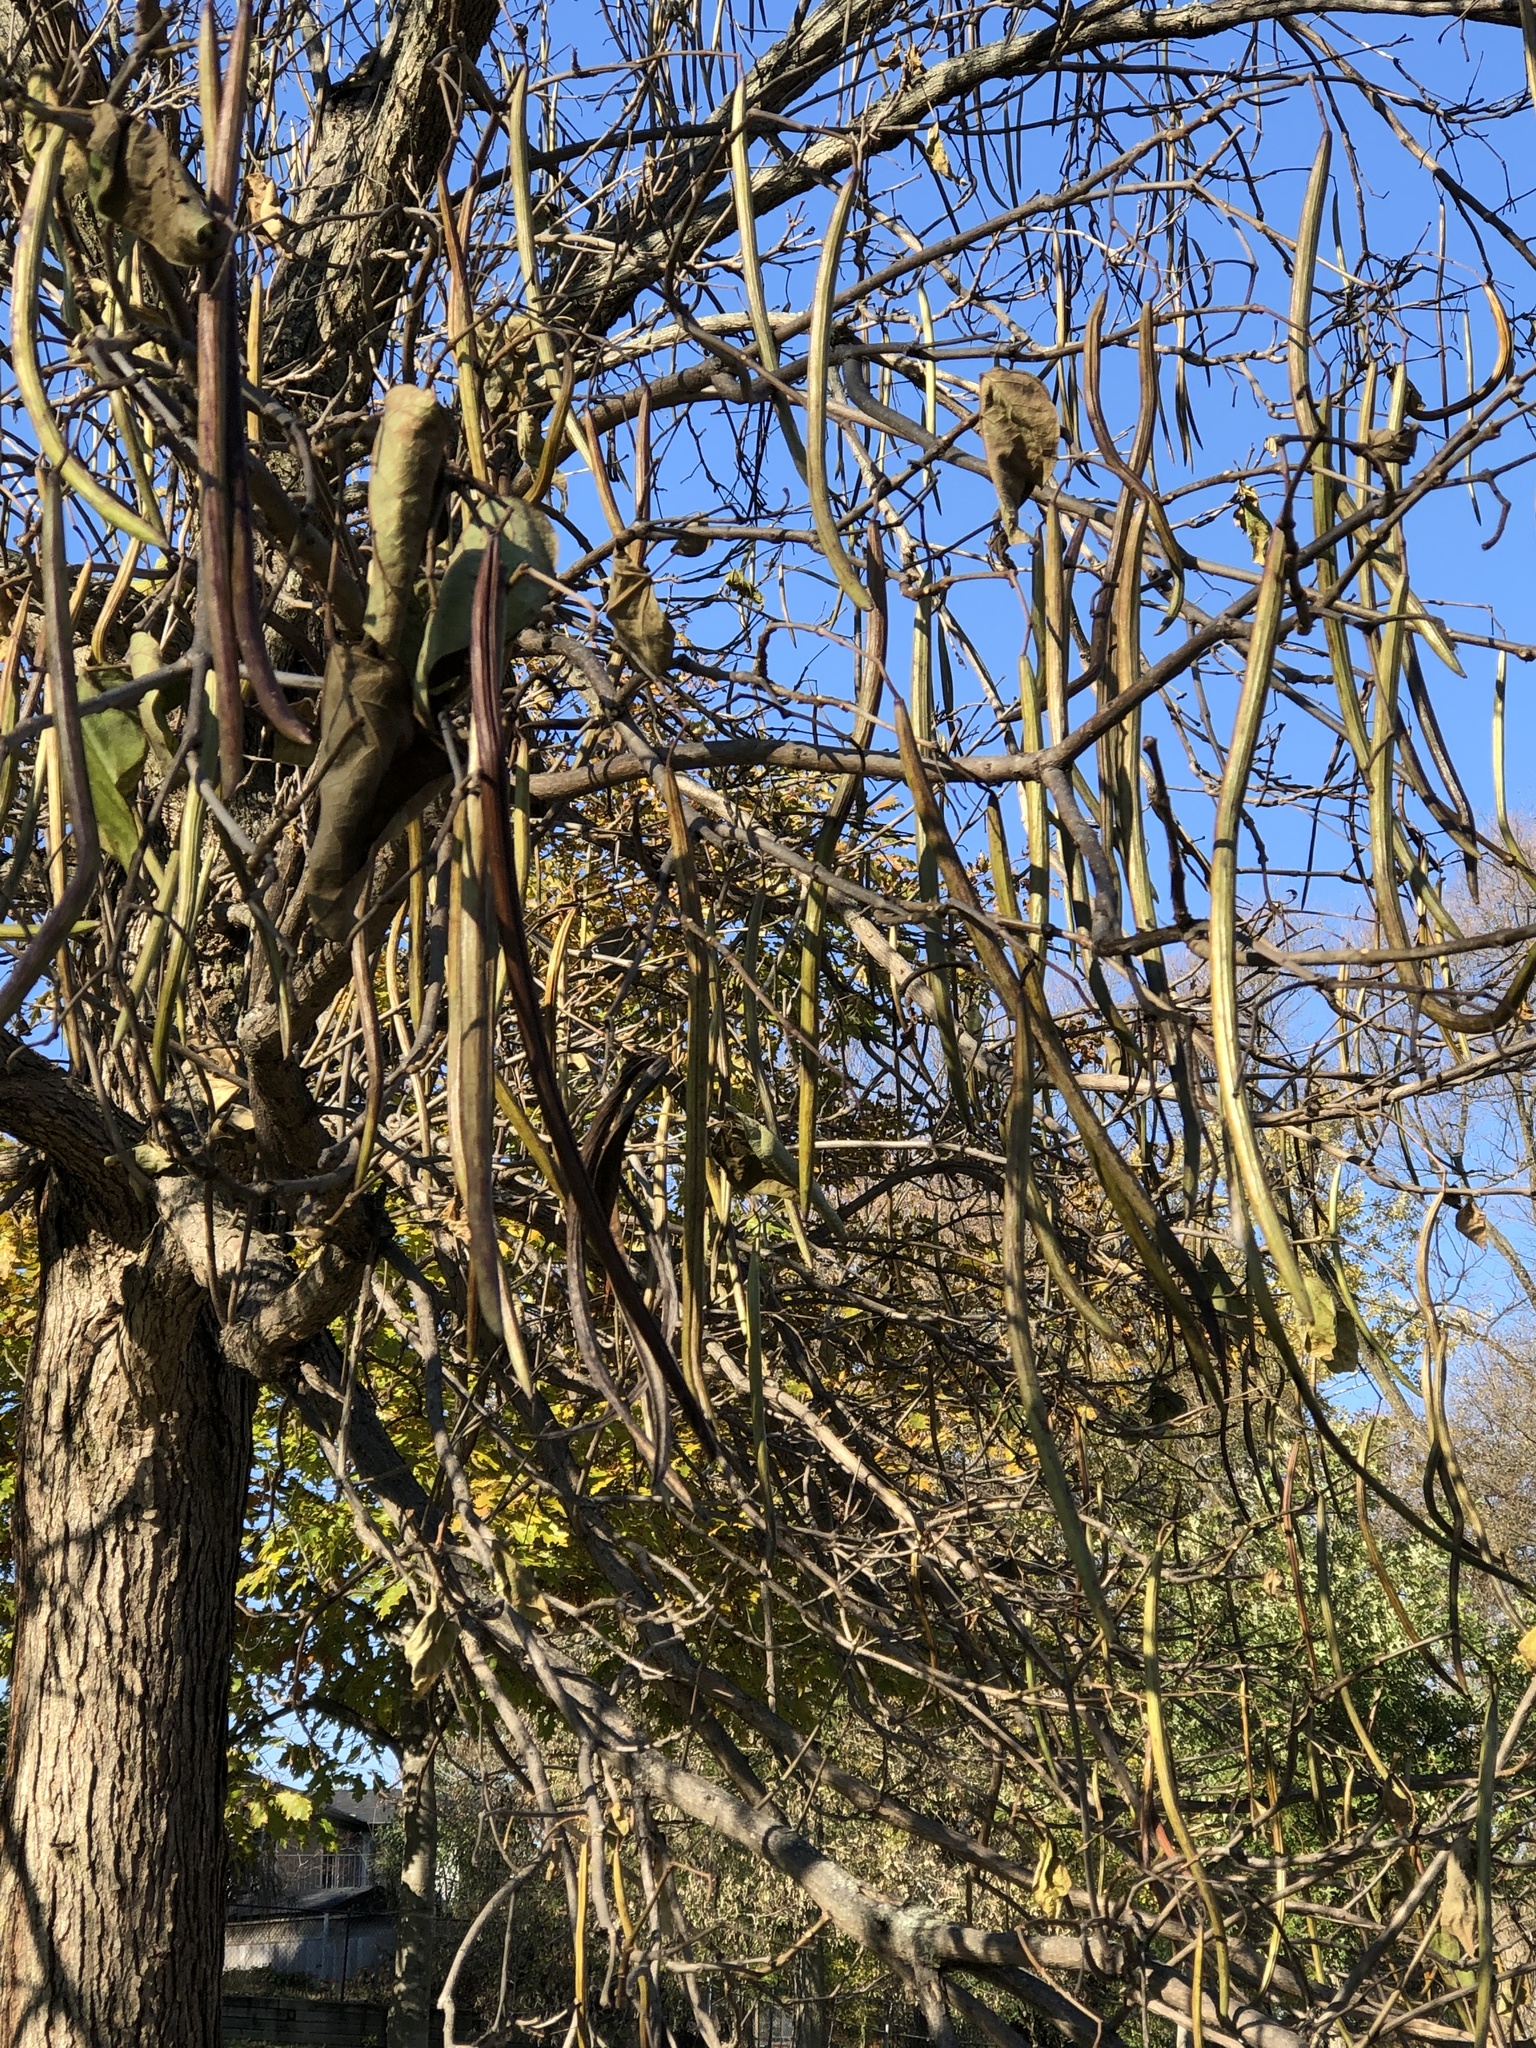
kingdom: Plantae
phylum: Tracheophyta
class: Magnoliopsida
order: Lamiales
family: Bignoniaceae
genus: Catalpa
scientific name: Catalpa speciosa
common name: Northern catalpa
